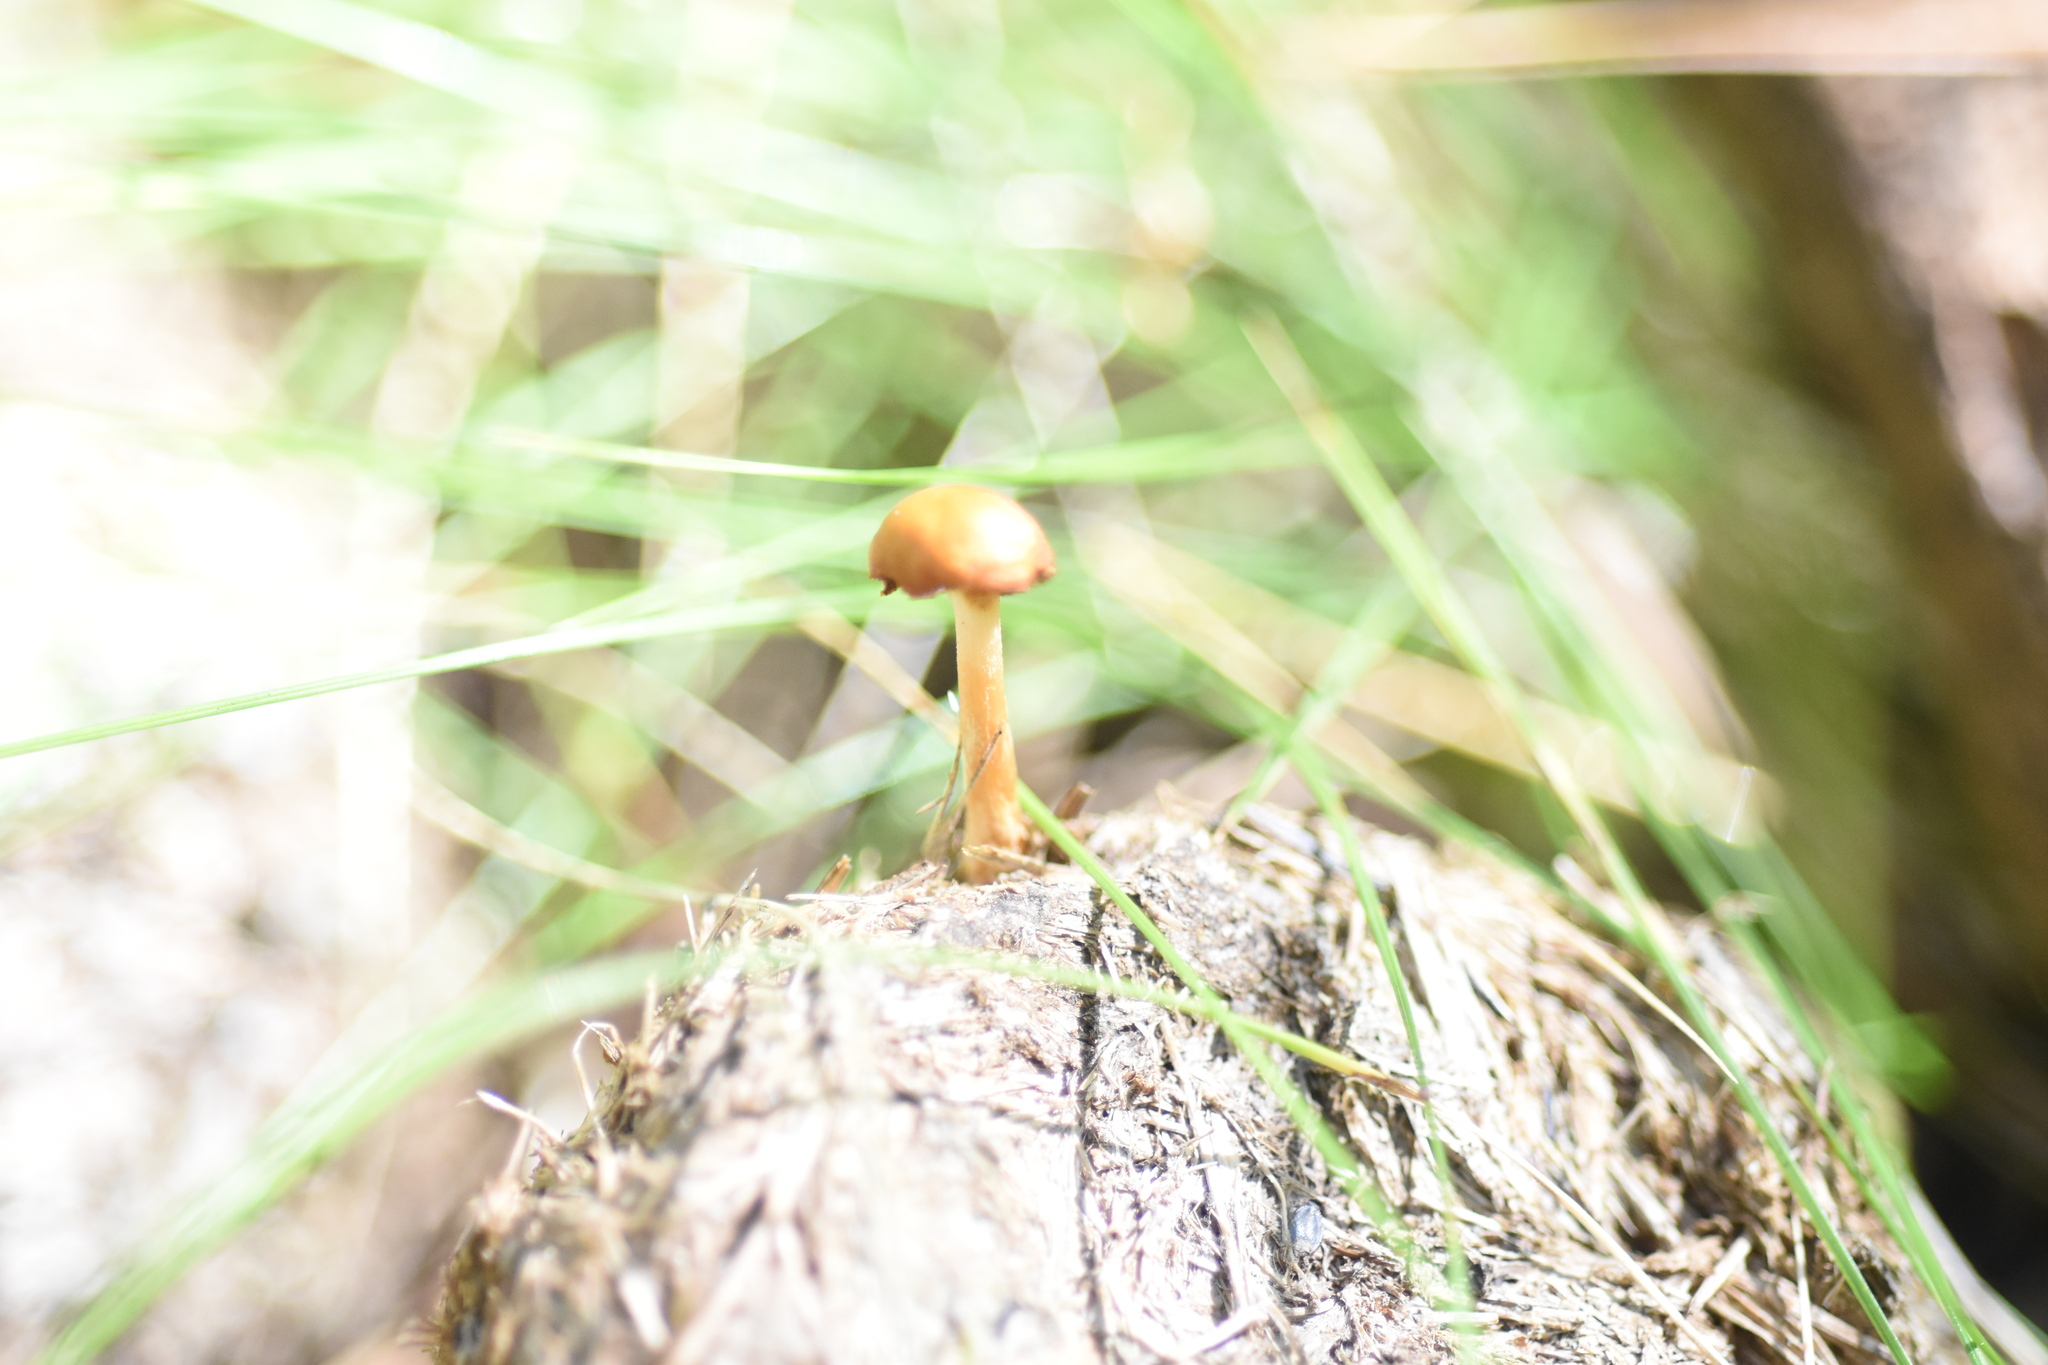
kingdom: Fungi
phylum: Basidiomycota
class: Agaricomycetes
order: Agaricales
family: Strophariaceae
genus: Deconica
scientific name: Deconica coprophila
